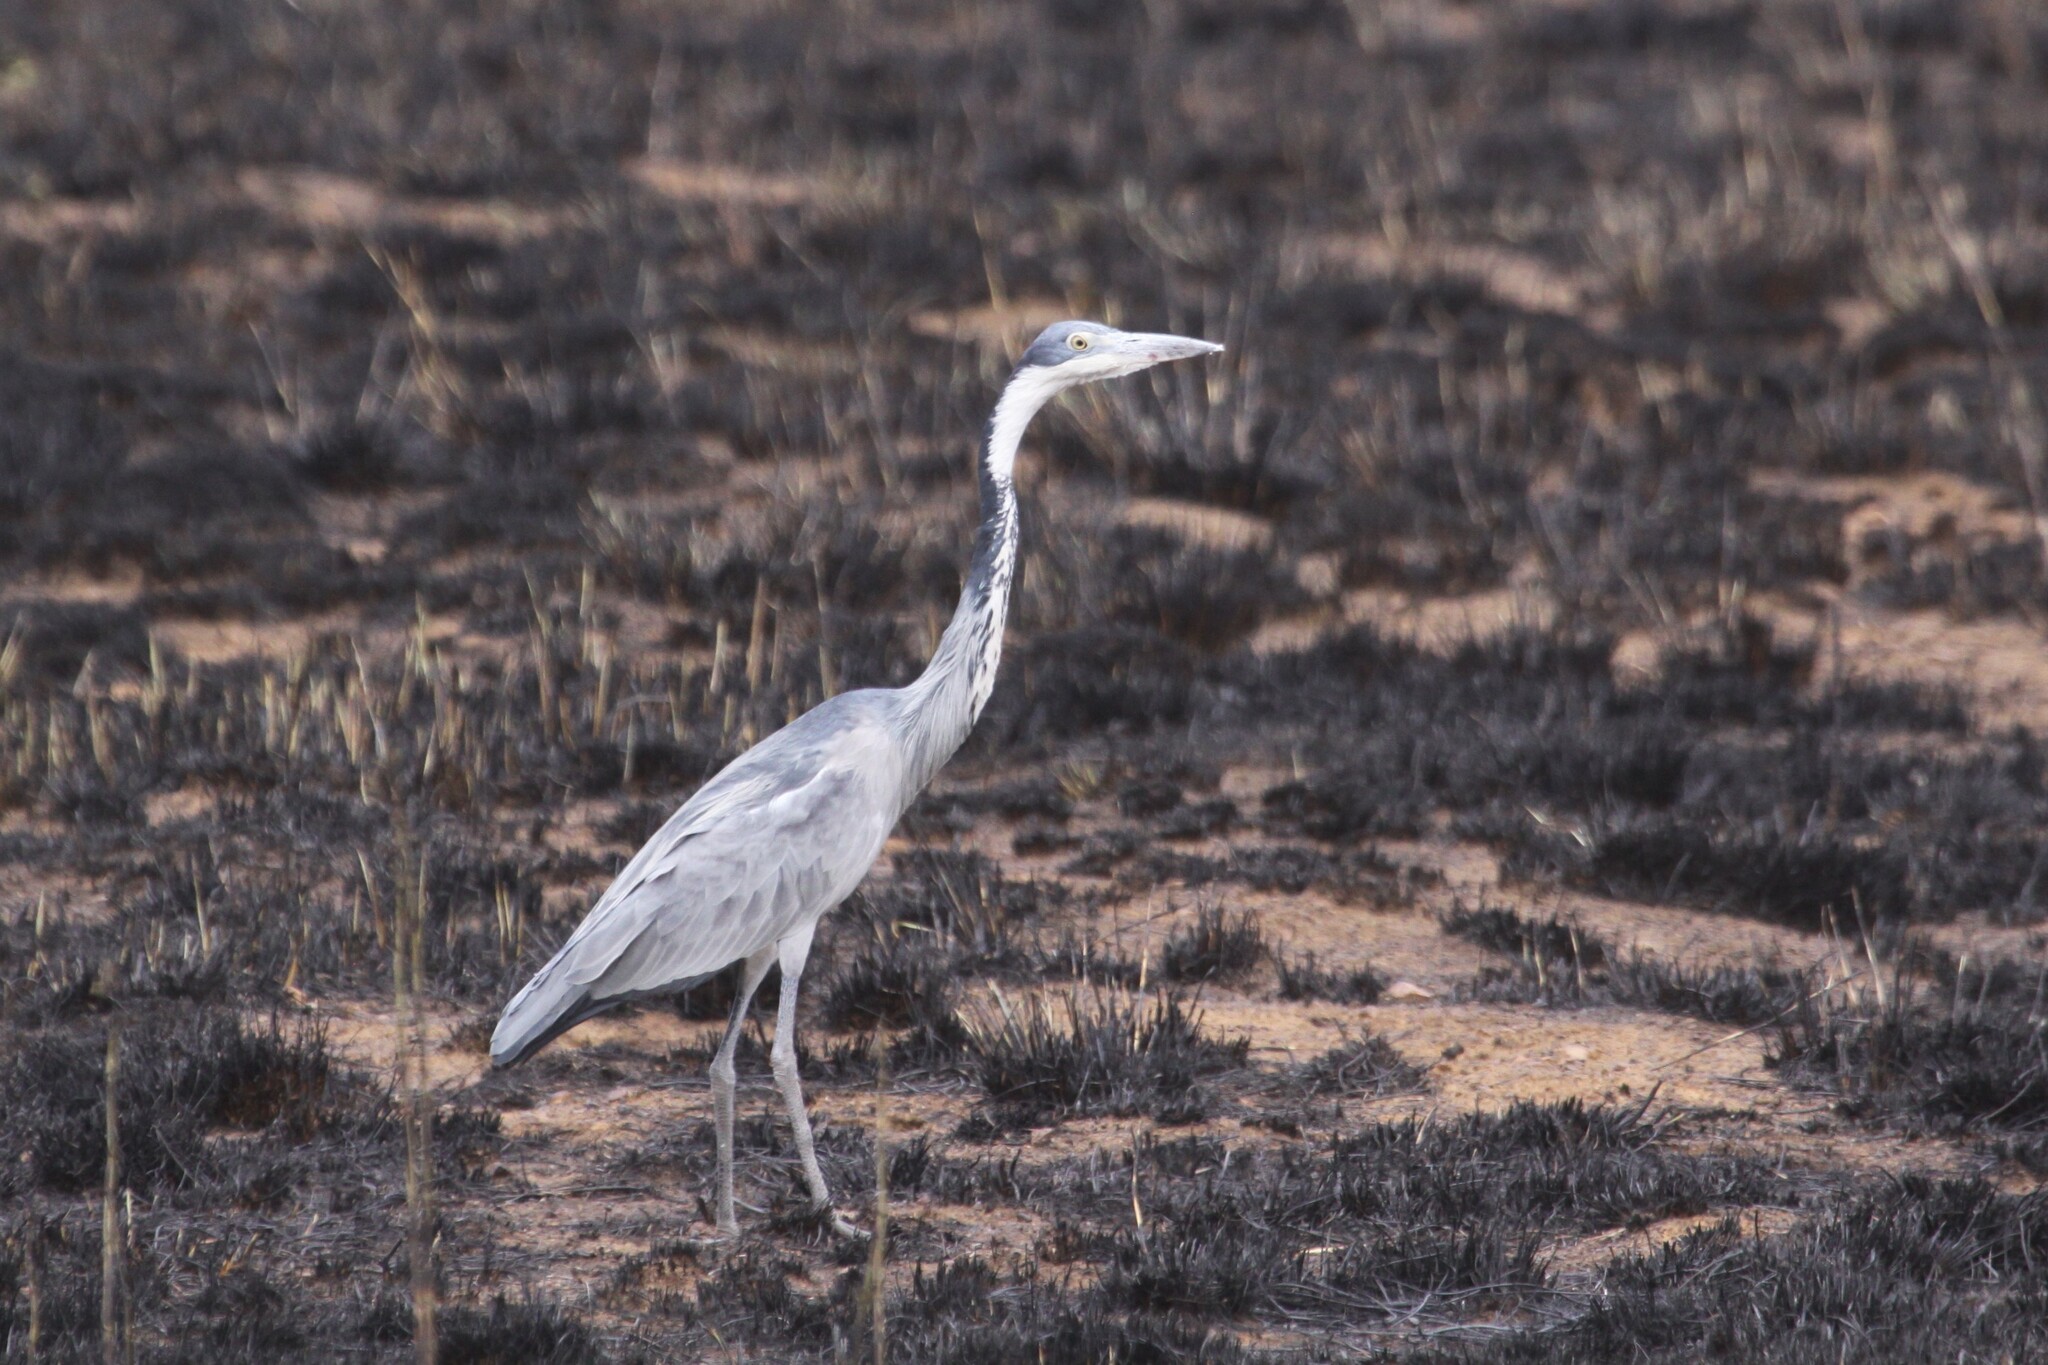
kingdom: Animalia
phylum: Chordata
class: Aves
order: Pelecaniformes
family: Ardeidae
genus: Ardea
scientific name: Ardea melanocephala
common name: Black-headed heron
